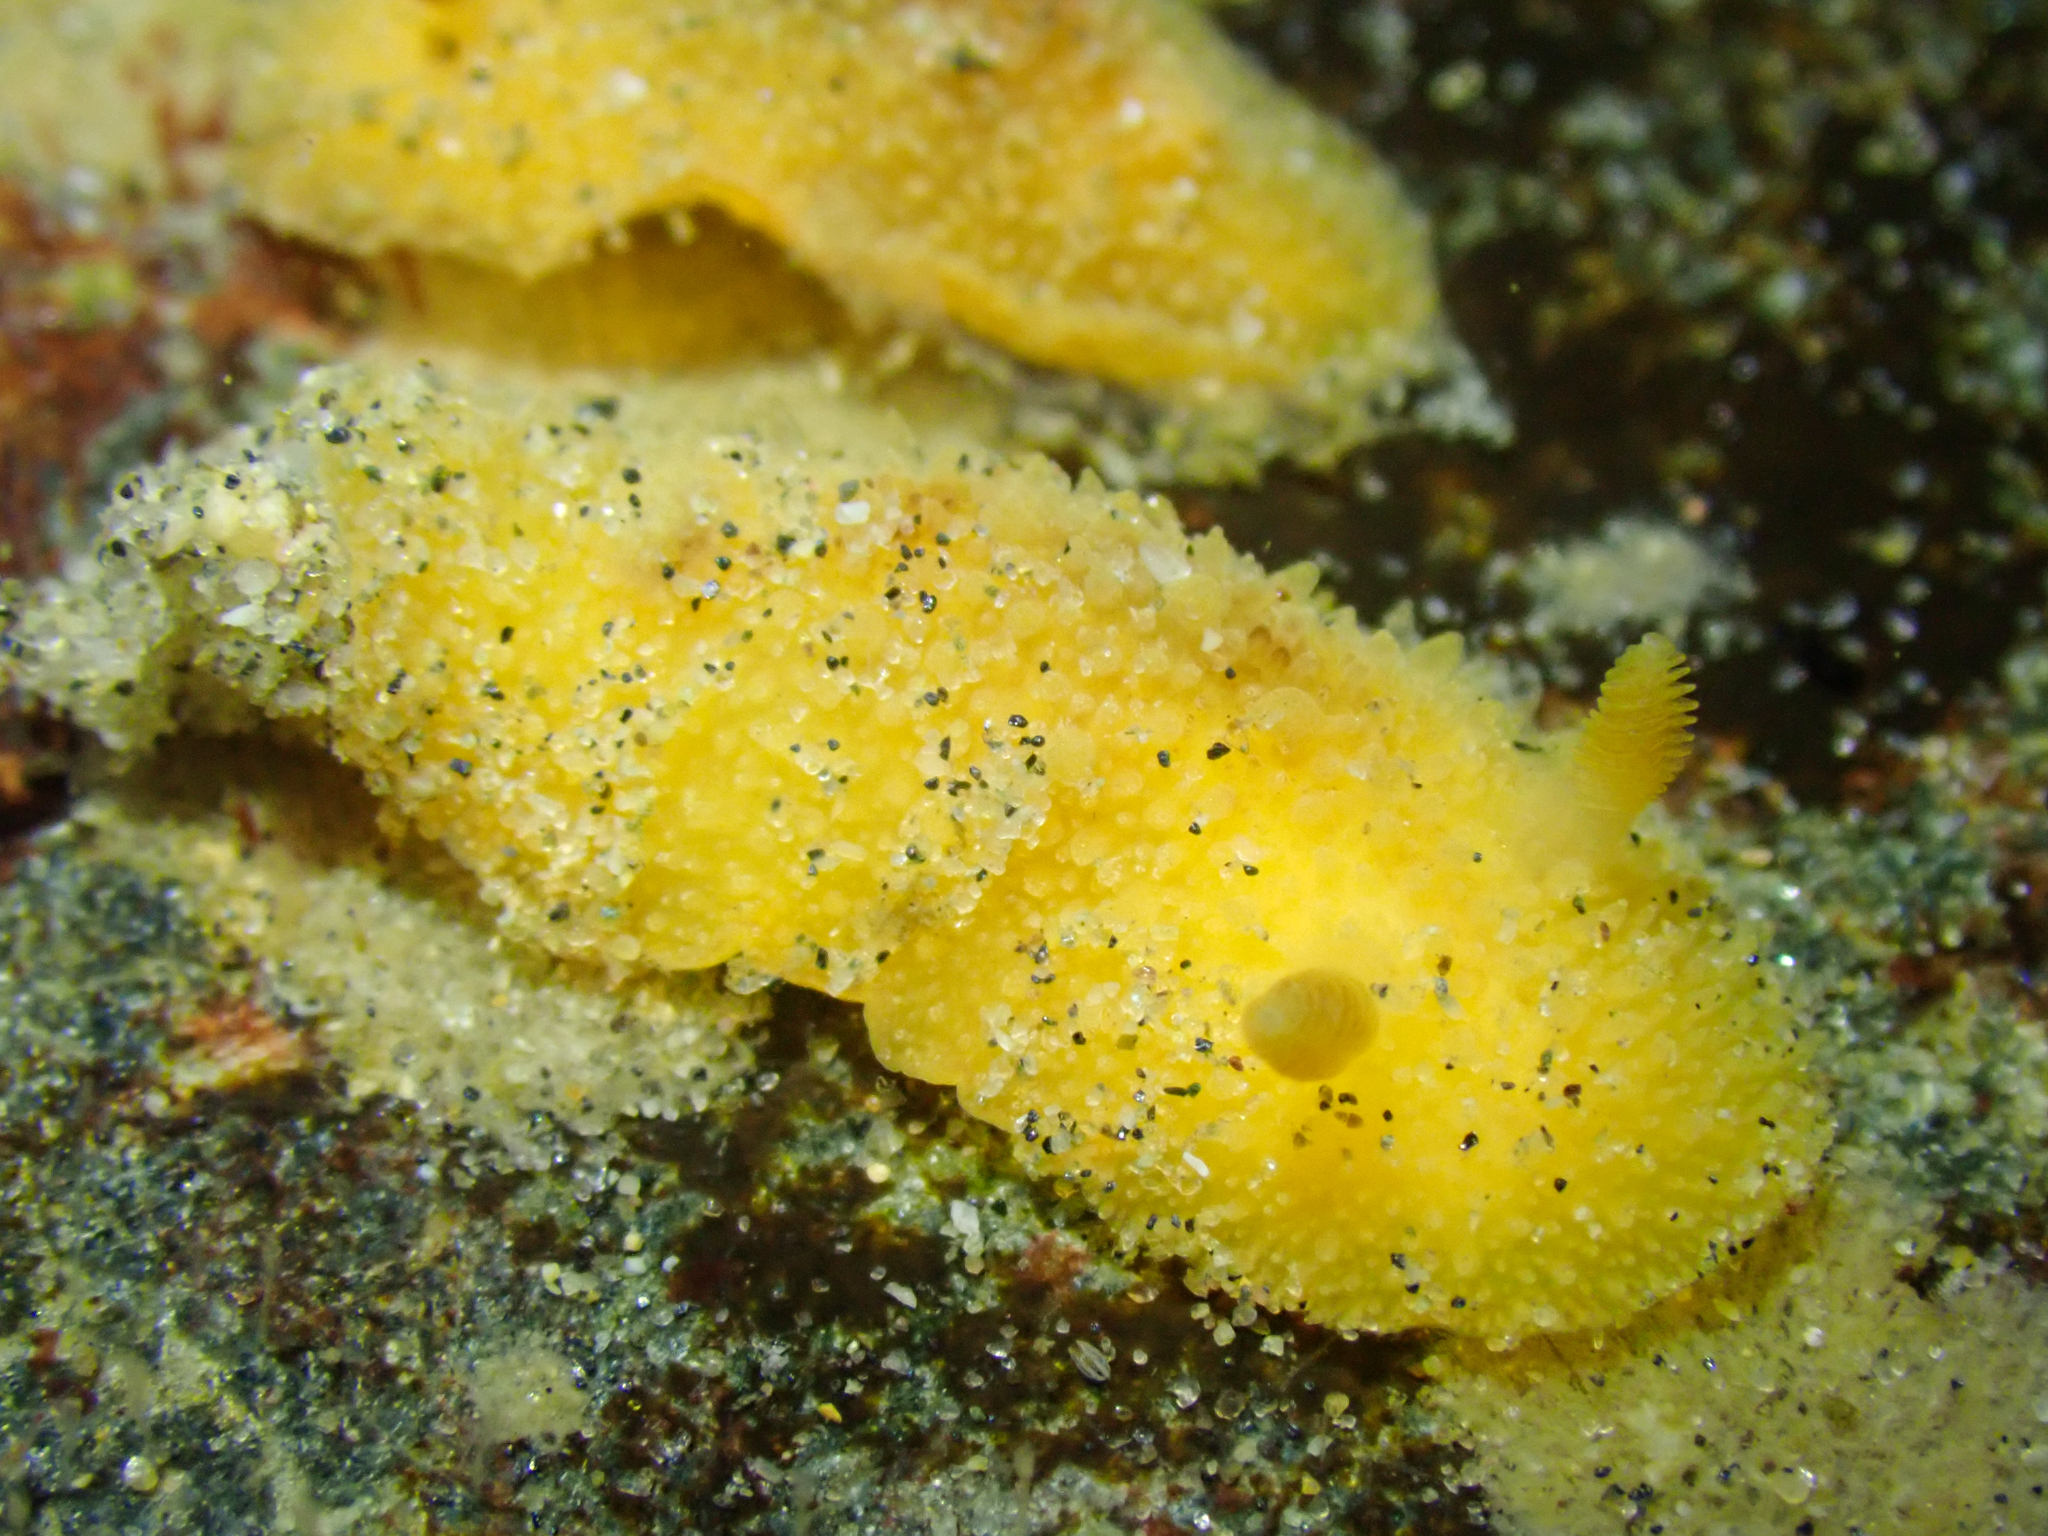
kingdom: Animalia
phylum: Mollusca
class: Gastropoda
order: Nudibranchia
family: Discodorididae
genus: Thordisa
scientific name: Thordisa bimaculata
